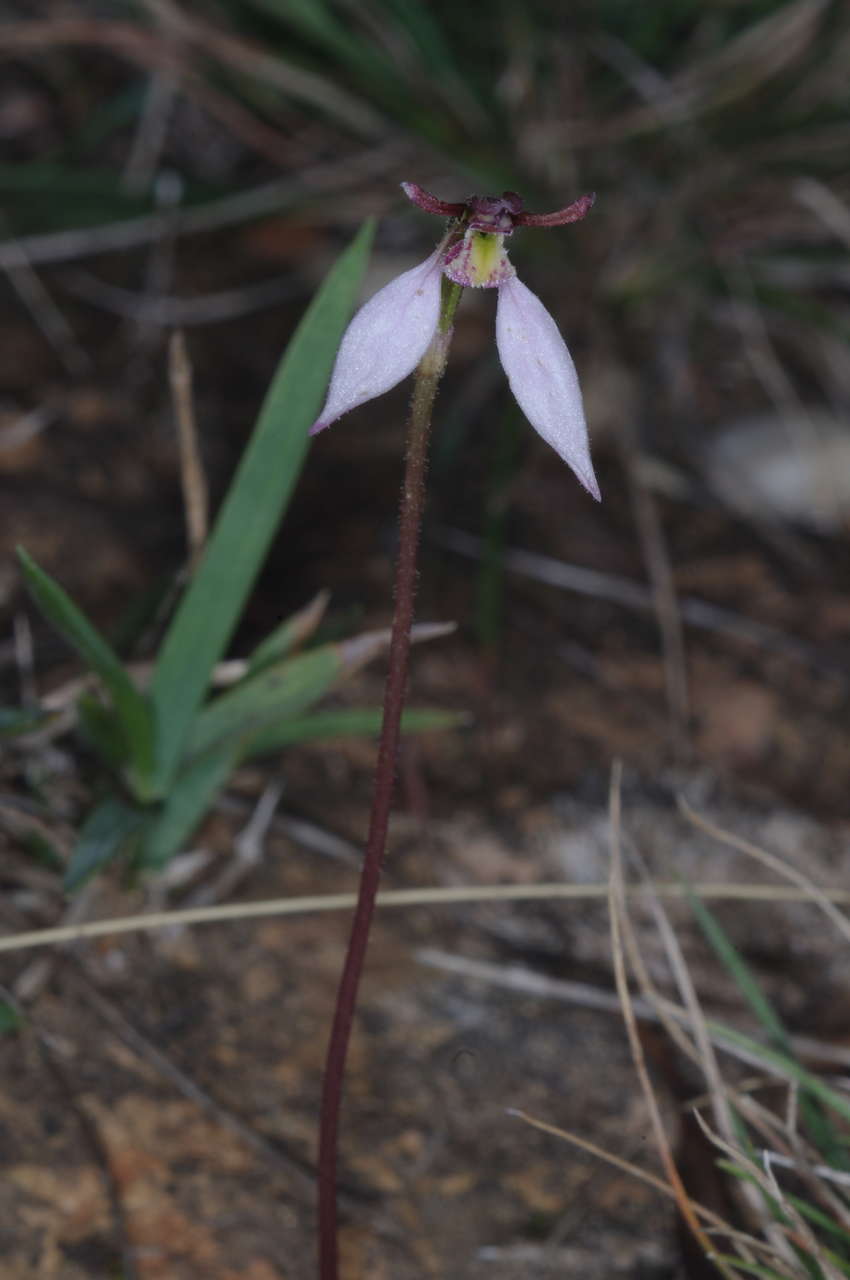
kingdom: Plantae
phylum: Tracheophyta
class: Liliopsida
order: Asparagales
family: Orchidaceae
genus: Eriochilus
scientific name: Eriochilus cucullatus
